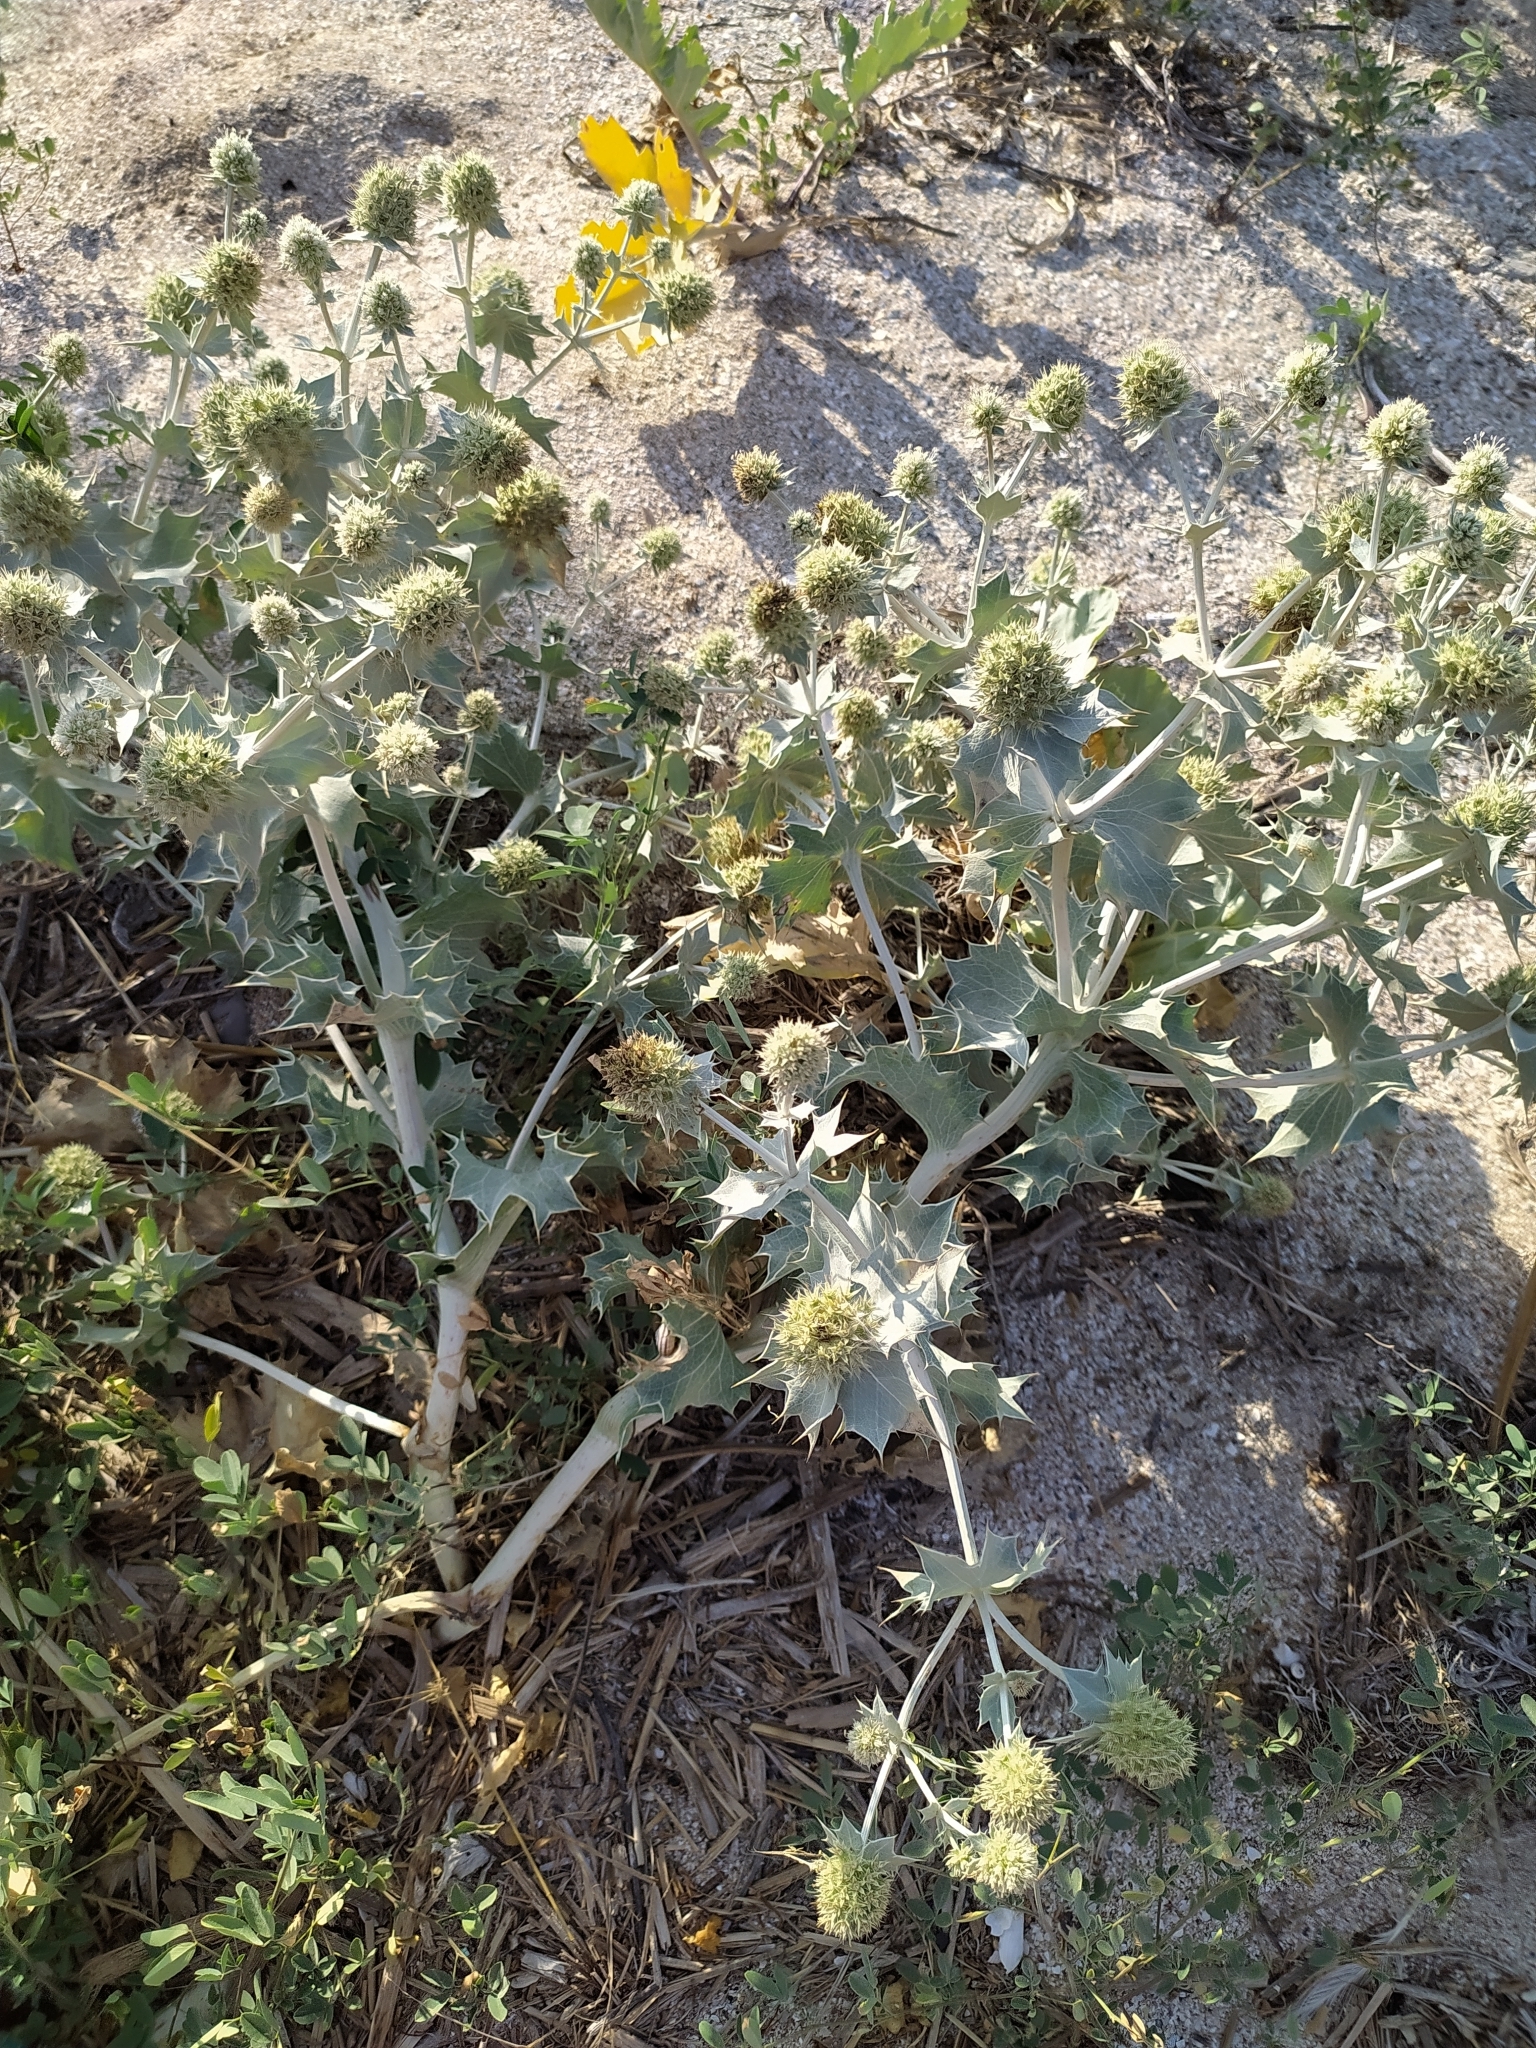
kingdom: Plantae
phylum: Tracheophyta
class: Magnoliopsida
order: Apiales
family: Apiaceae
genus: Eryngium
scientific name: Eryngium maritimum
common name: Sea-holly
